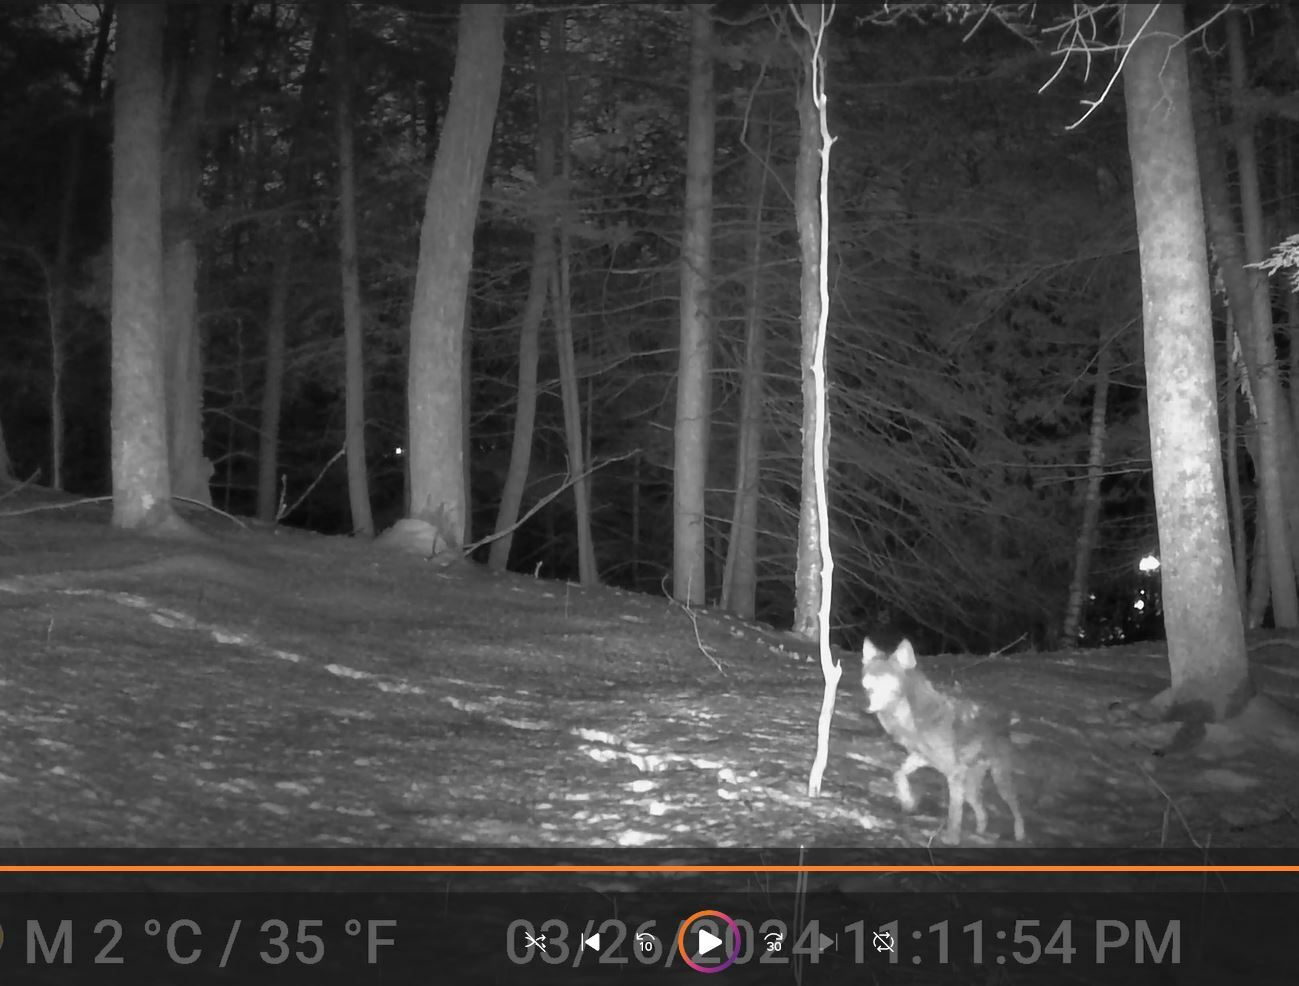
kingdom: Animalia
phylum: Chordata
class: Mammalia
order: Carnivora
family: Canidae
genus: Canis
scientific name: Canis latrans
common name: Coyote
